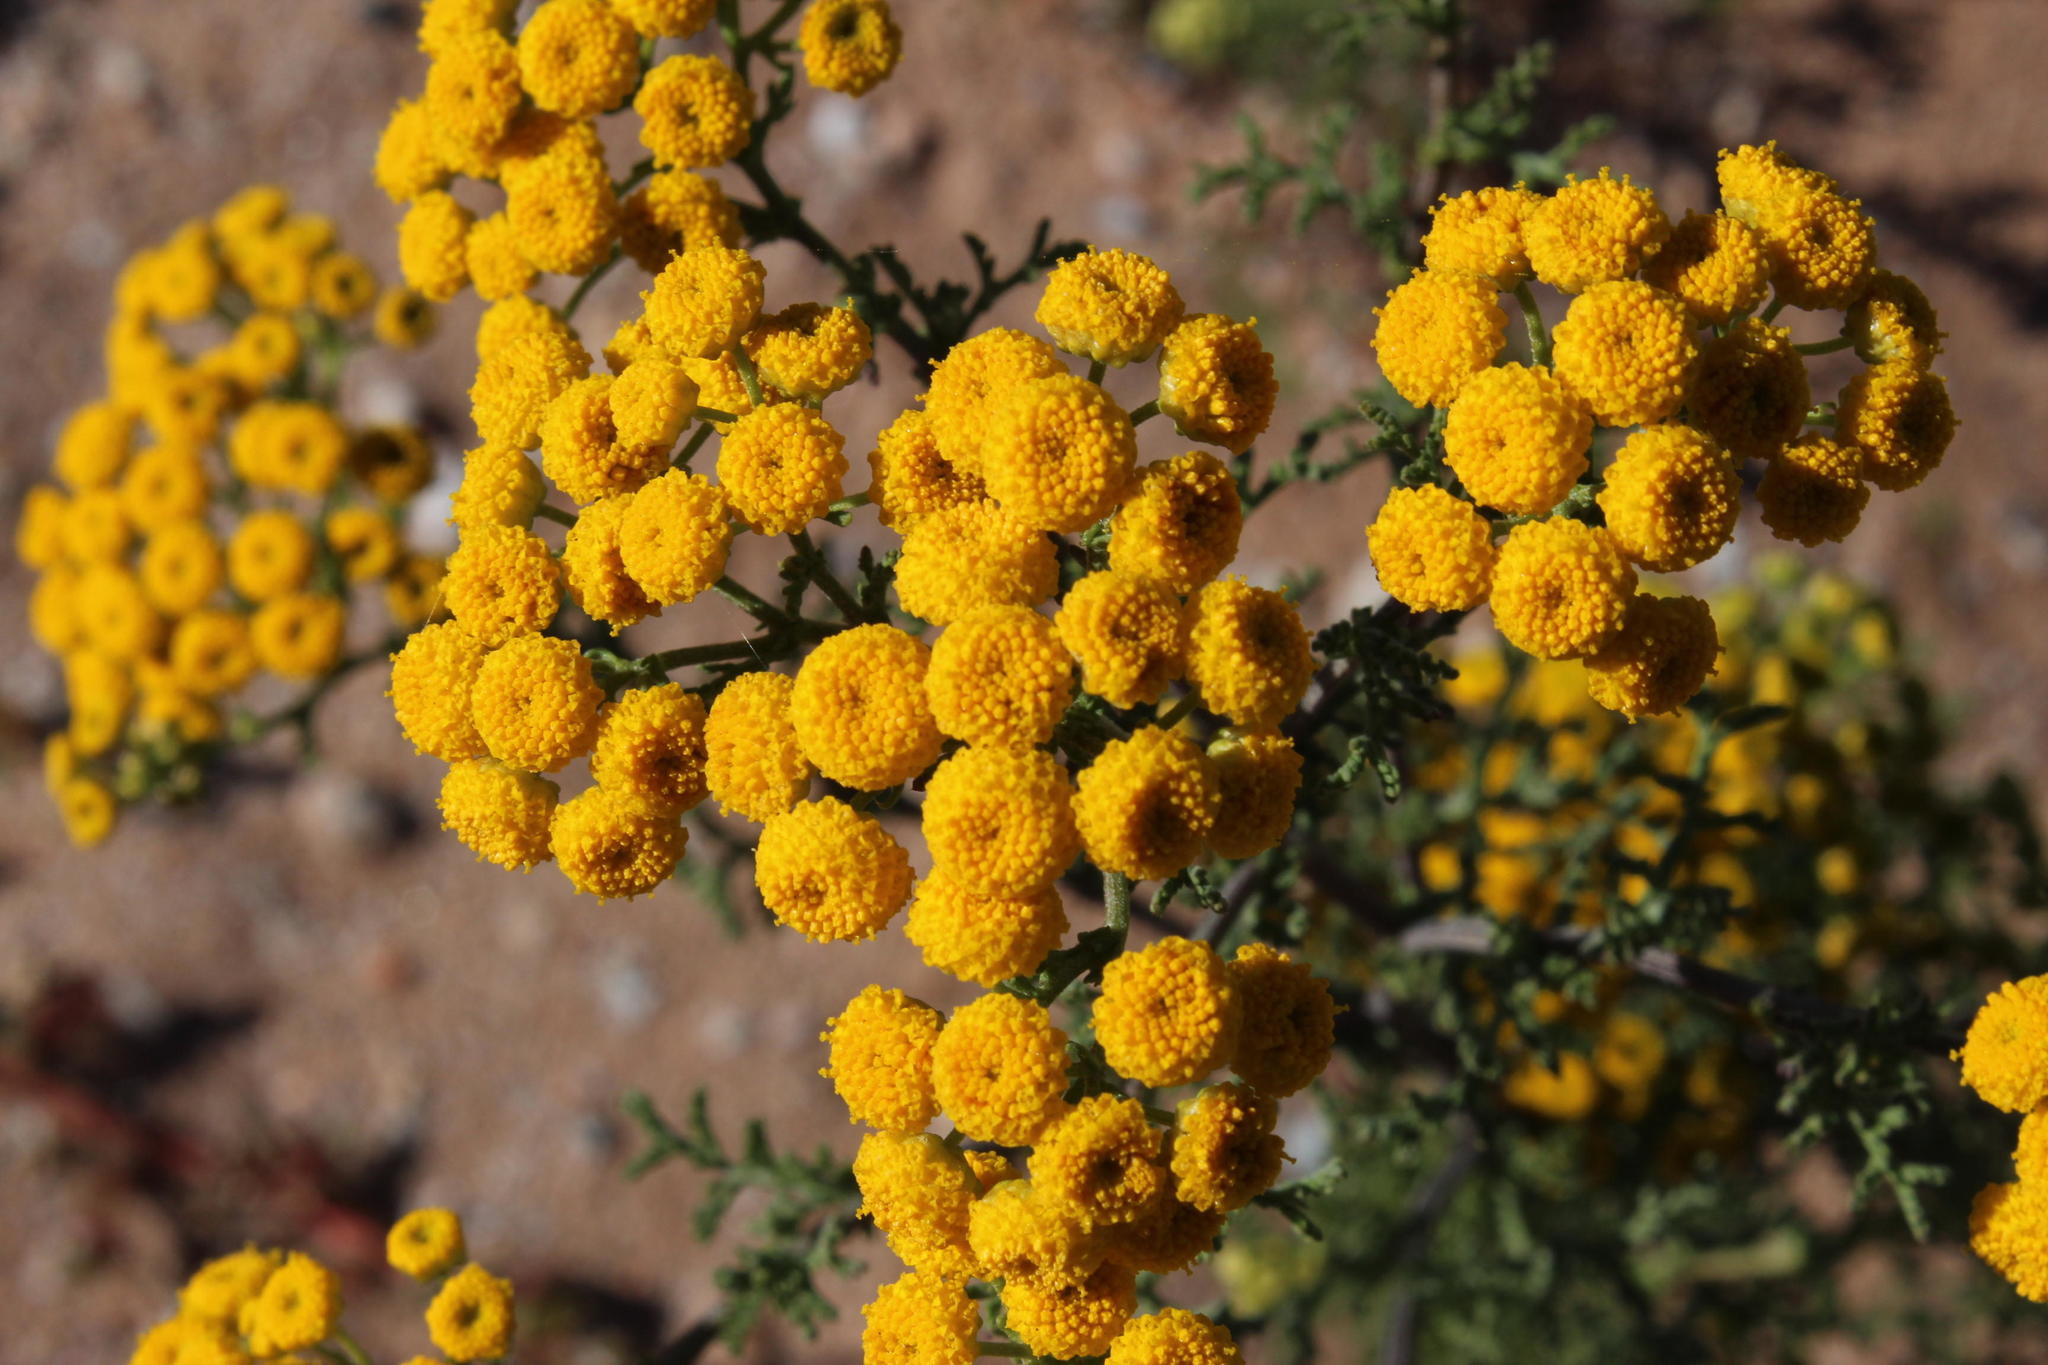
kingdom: Plantae
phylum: Tracheophyta
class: Magnoliopsida
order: Asterales
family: Asteraceae
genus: Oncosiphon
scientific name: Oncosiphon suffruticosus
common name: Shrubby mayweed
